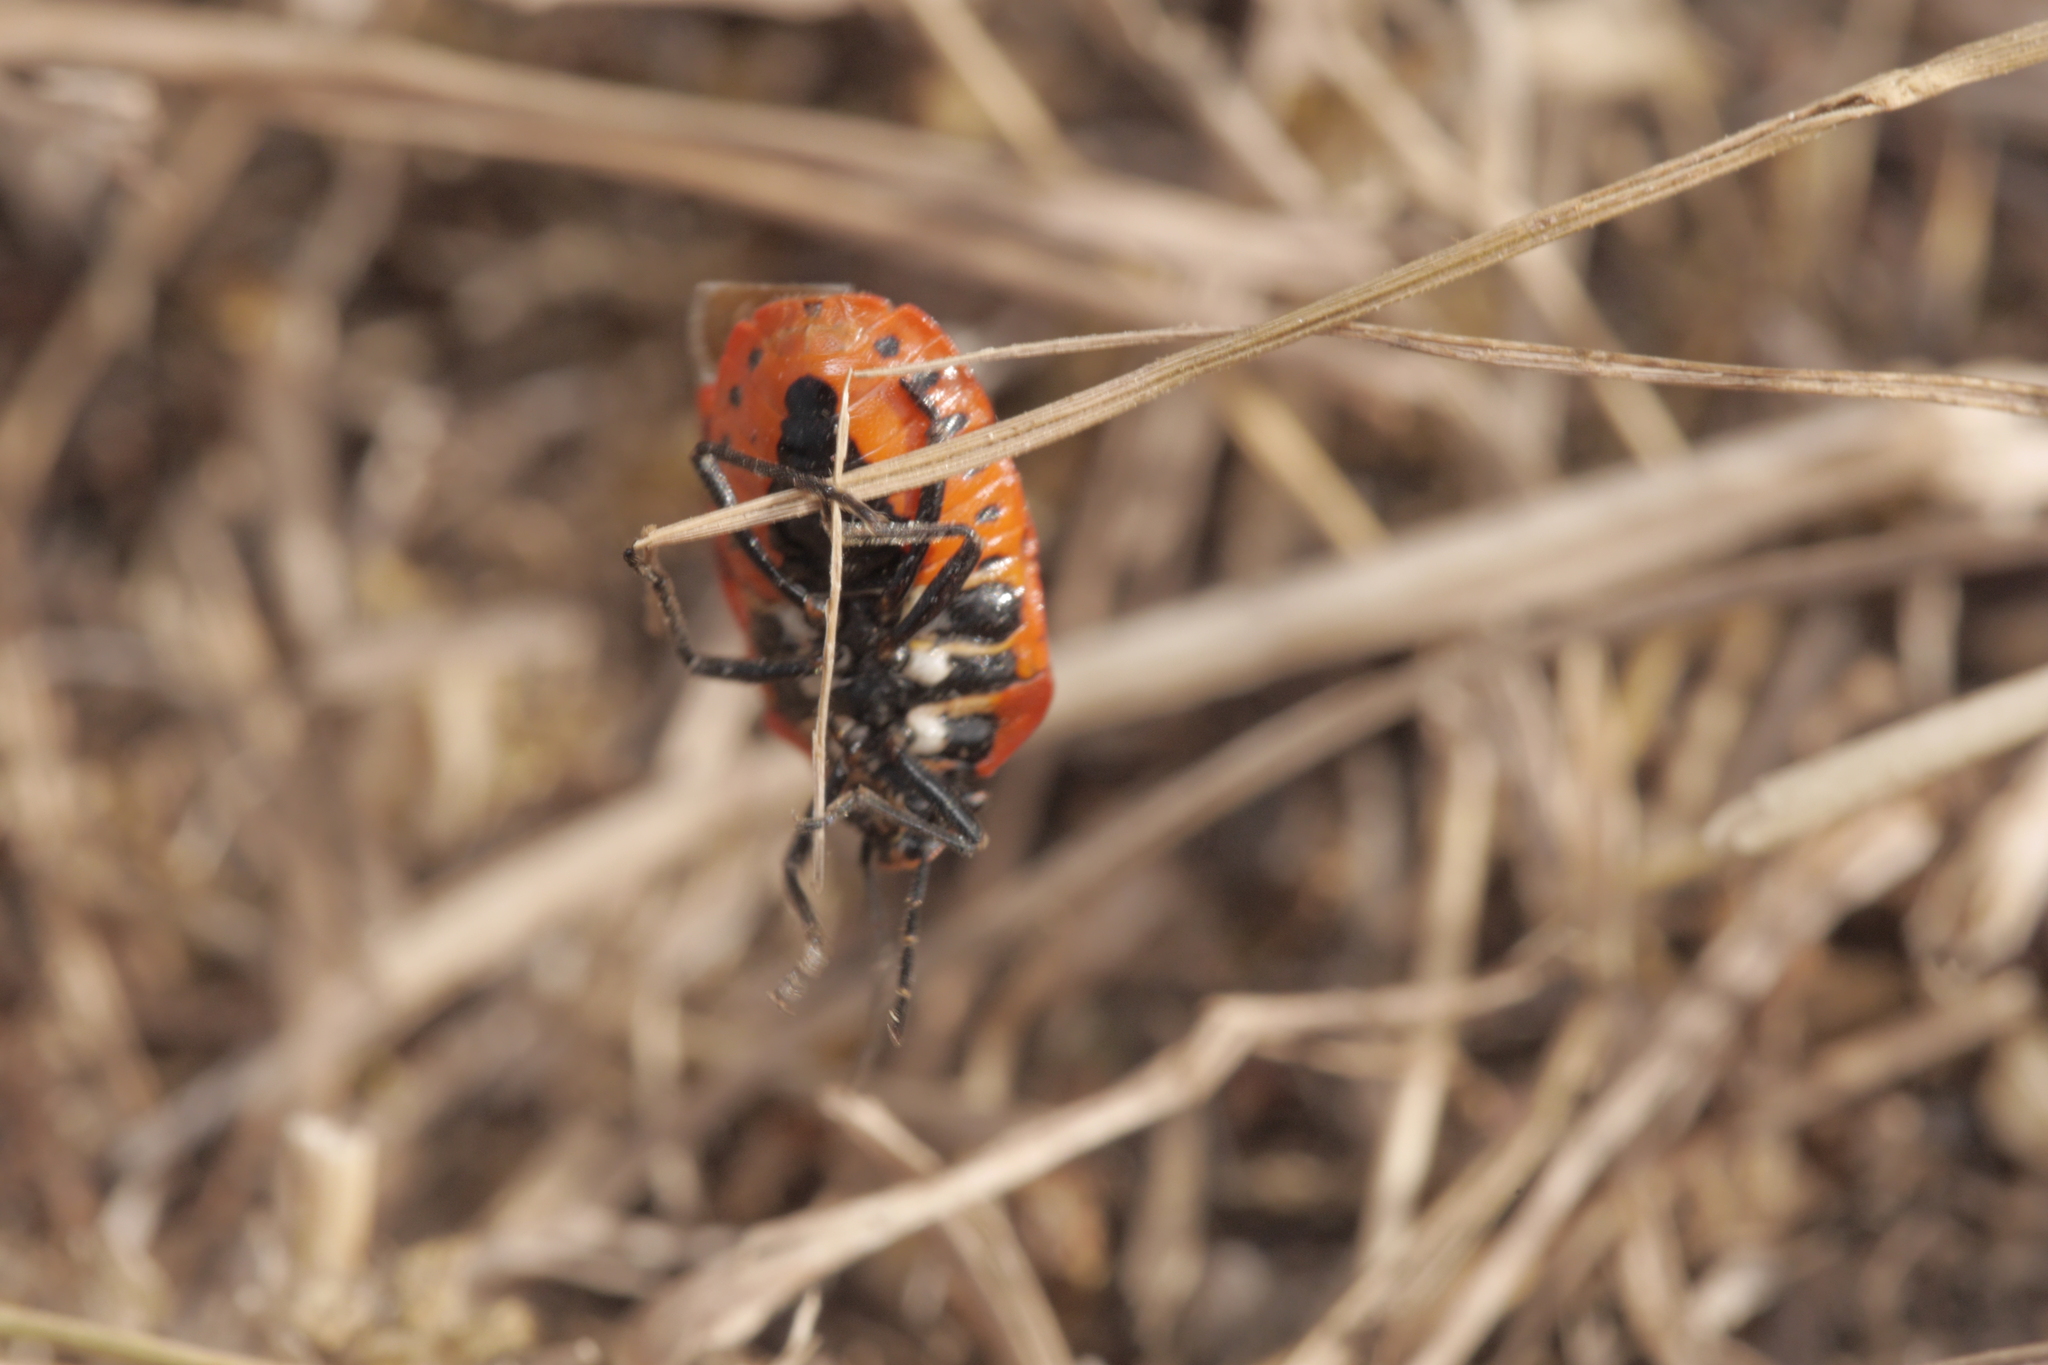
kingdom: Animalia
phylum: Arthropoda
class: Insecta
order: Hemiptera
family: Pentatomidae
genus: Eurydema
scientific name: Eurydema ornata
